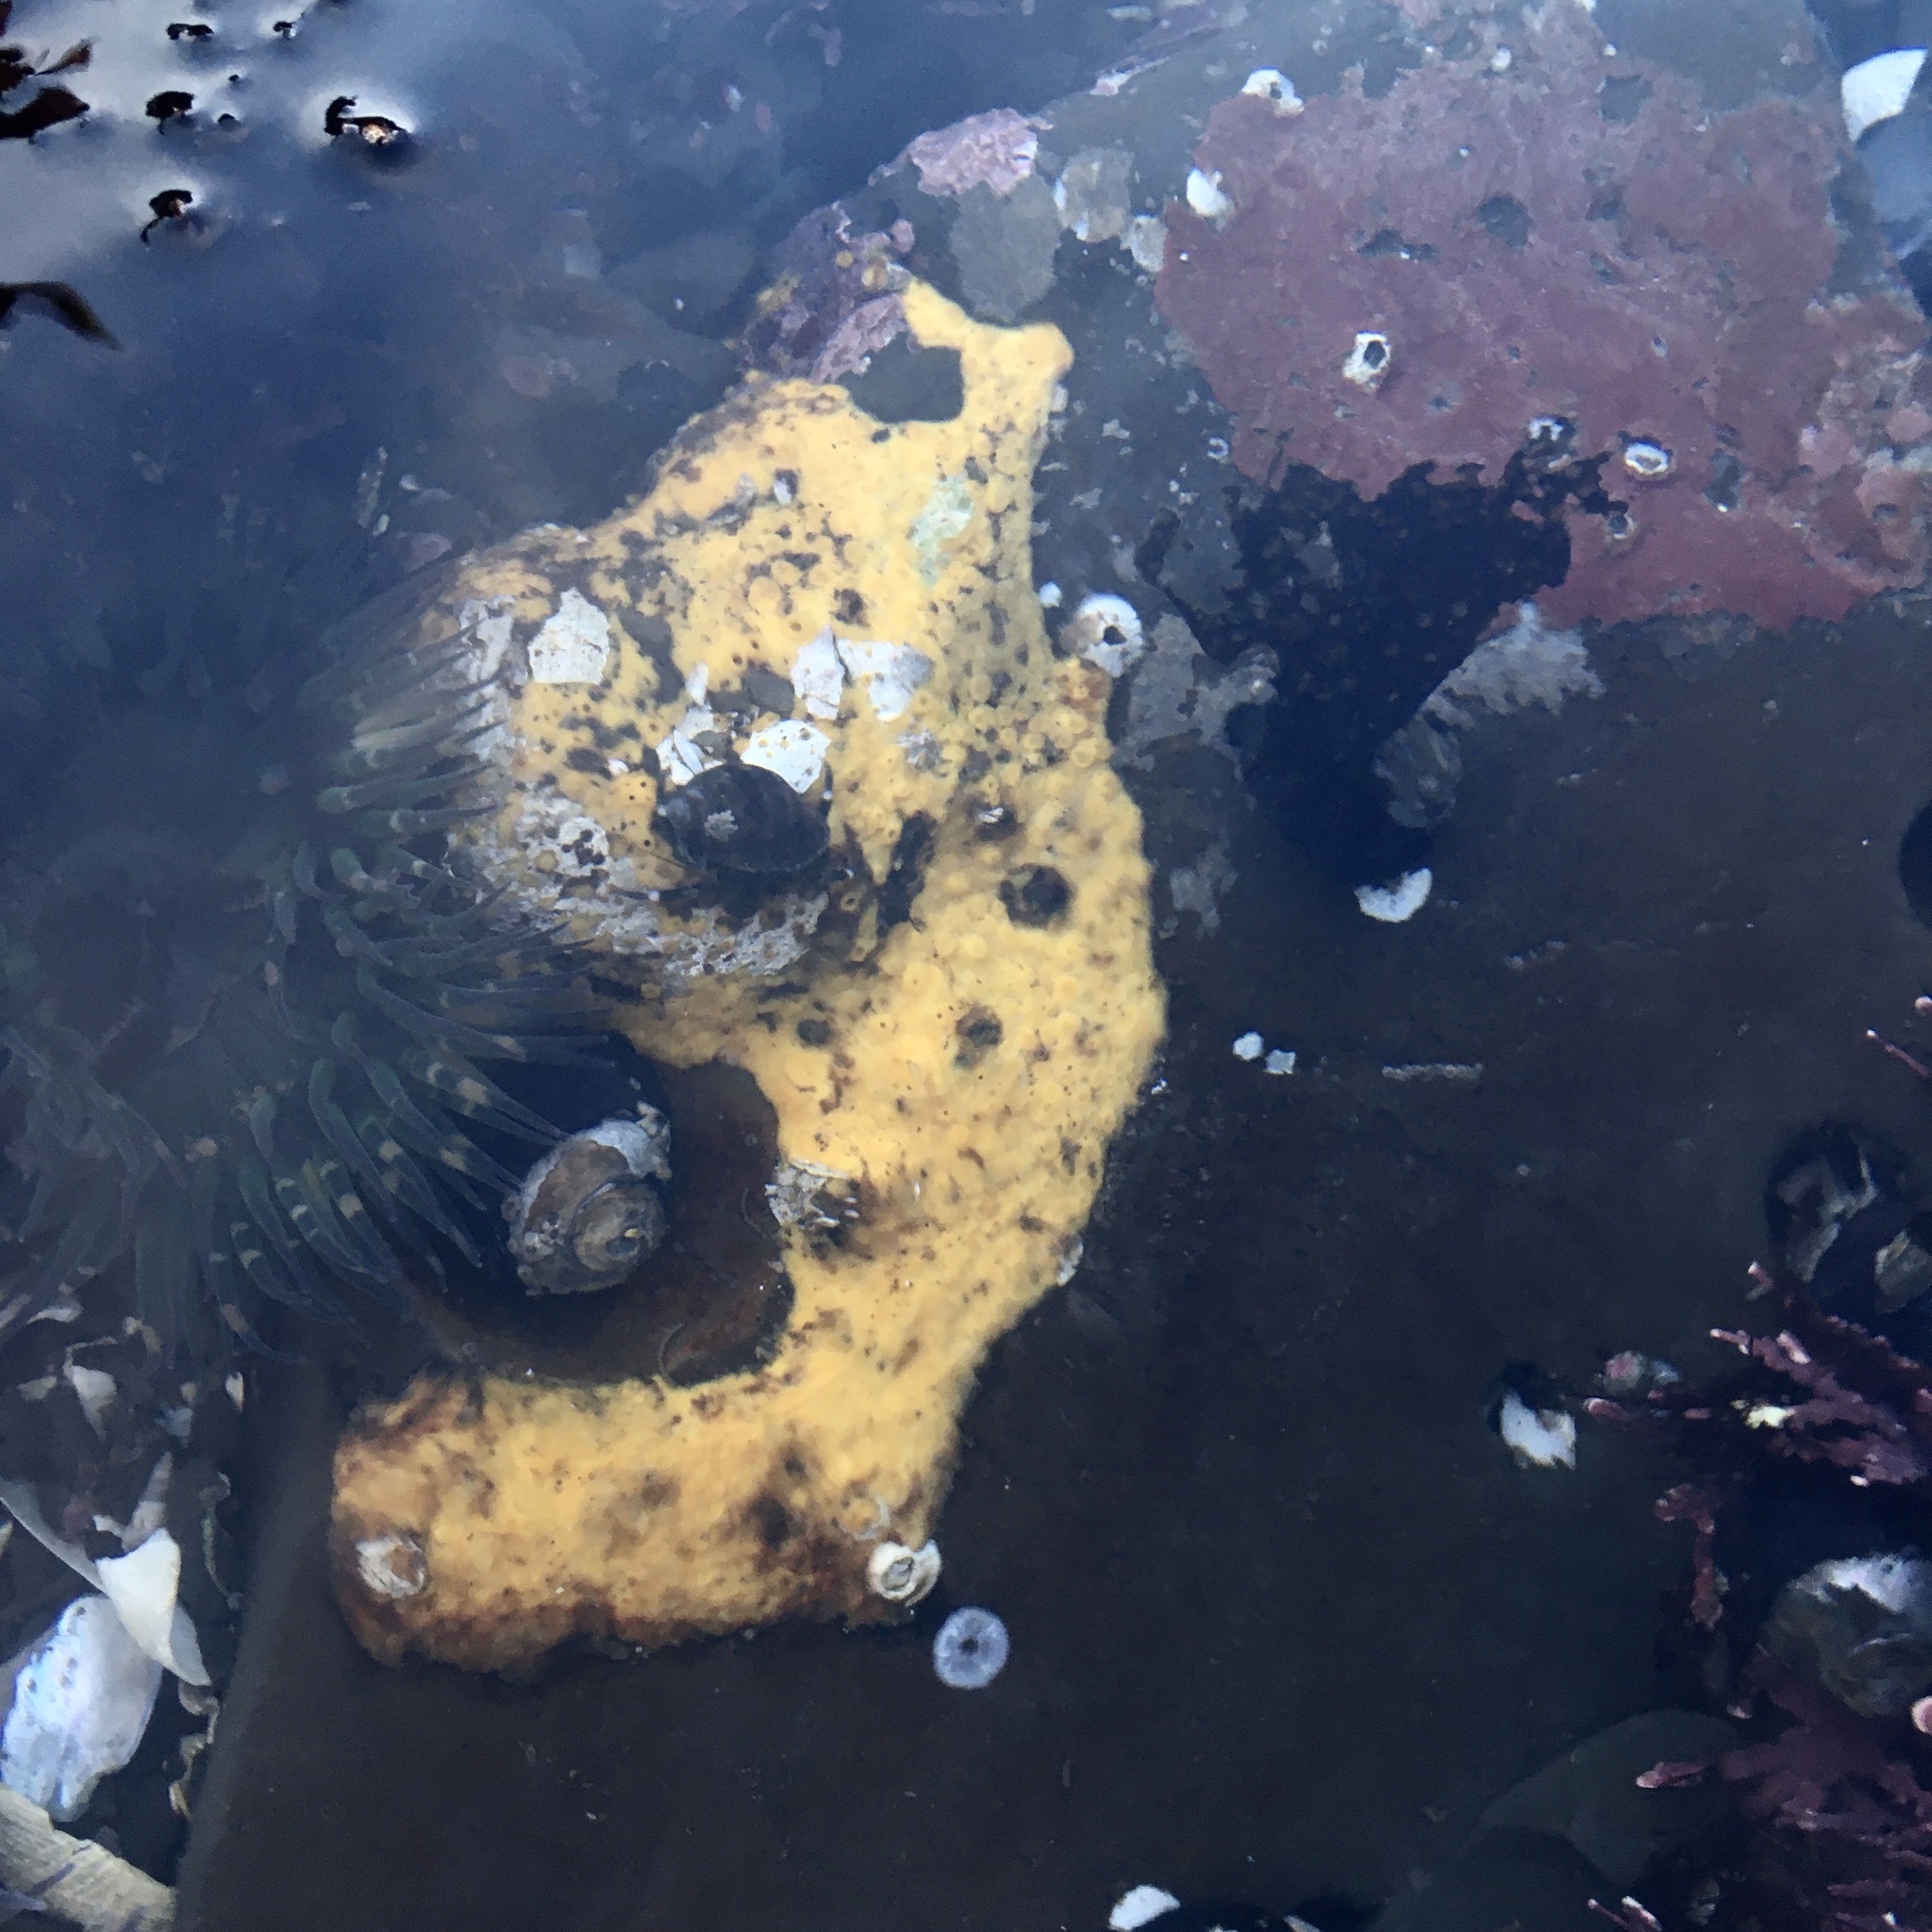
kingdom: Animalia
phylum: Porifera
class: Demospongiae
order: Clionaida
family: Clionaidae
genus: Cliona
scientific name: Cliona californiana
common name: California boring horny sponge
